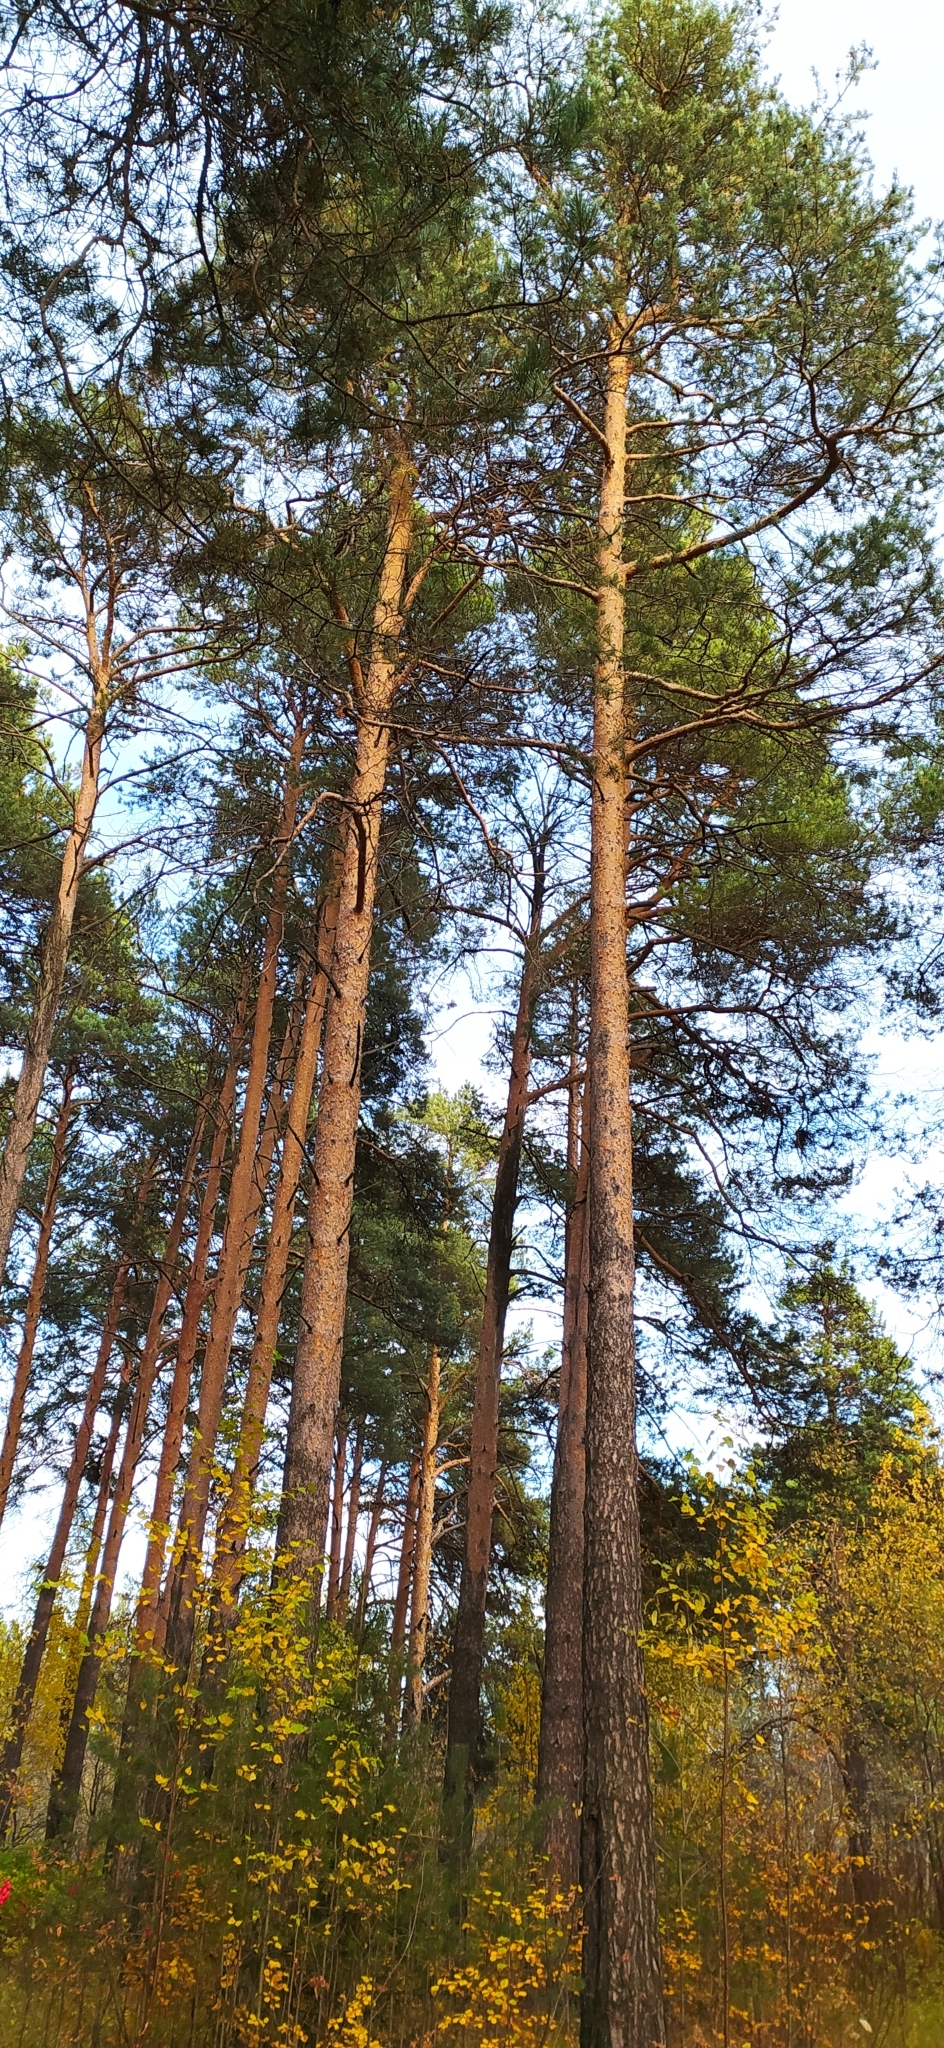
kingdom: Plantae
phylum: Tracheophyta
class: Pinopsida
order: Pinales
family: Pinaceae
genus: Pinus
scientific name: Pinus sylvestris
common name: Scots pine
